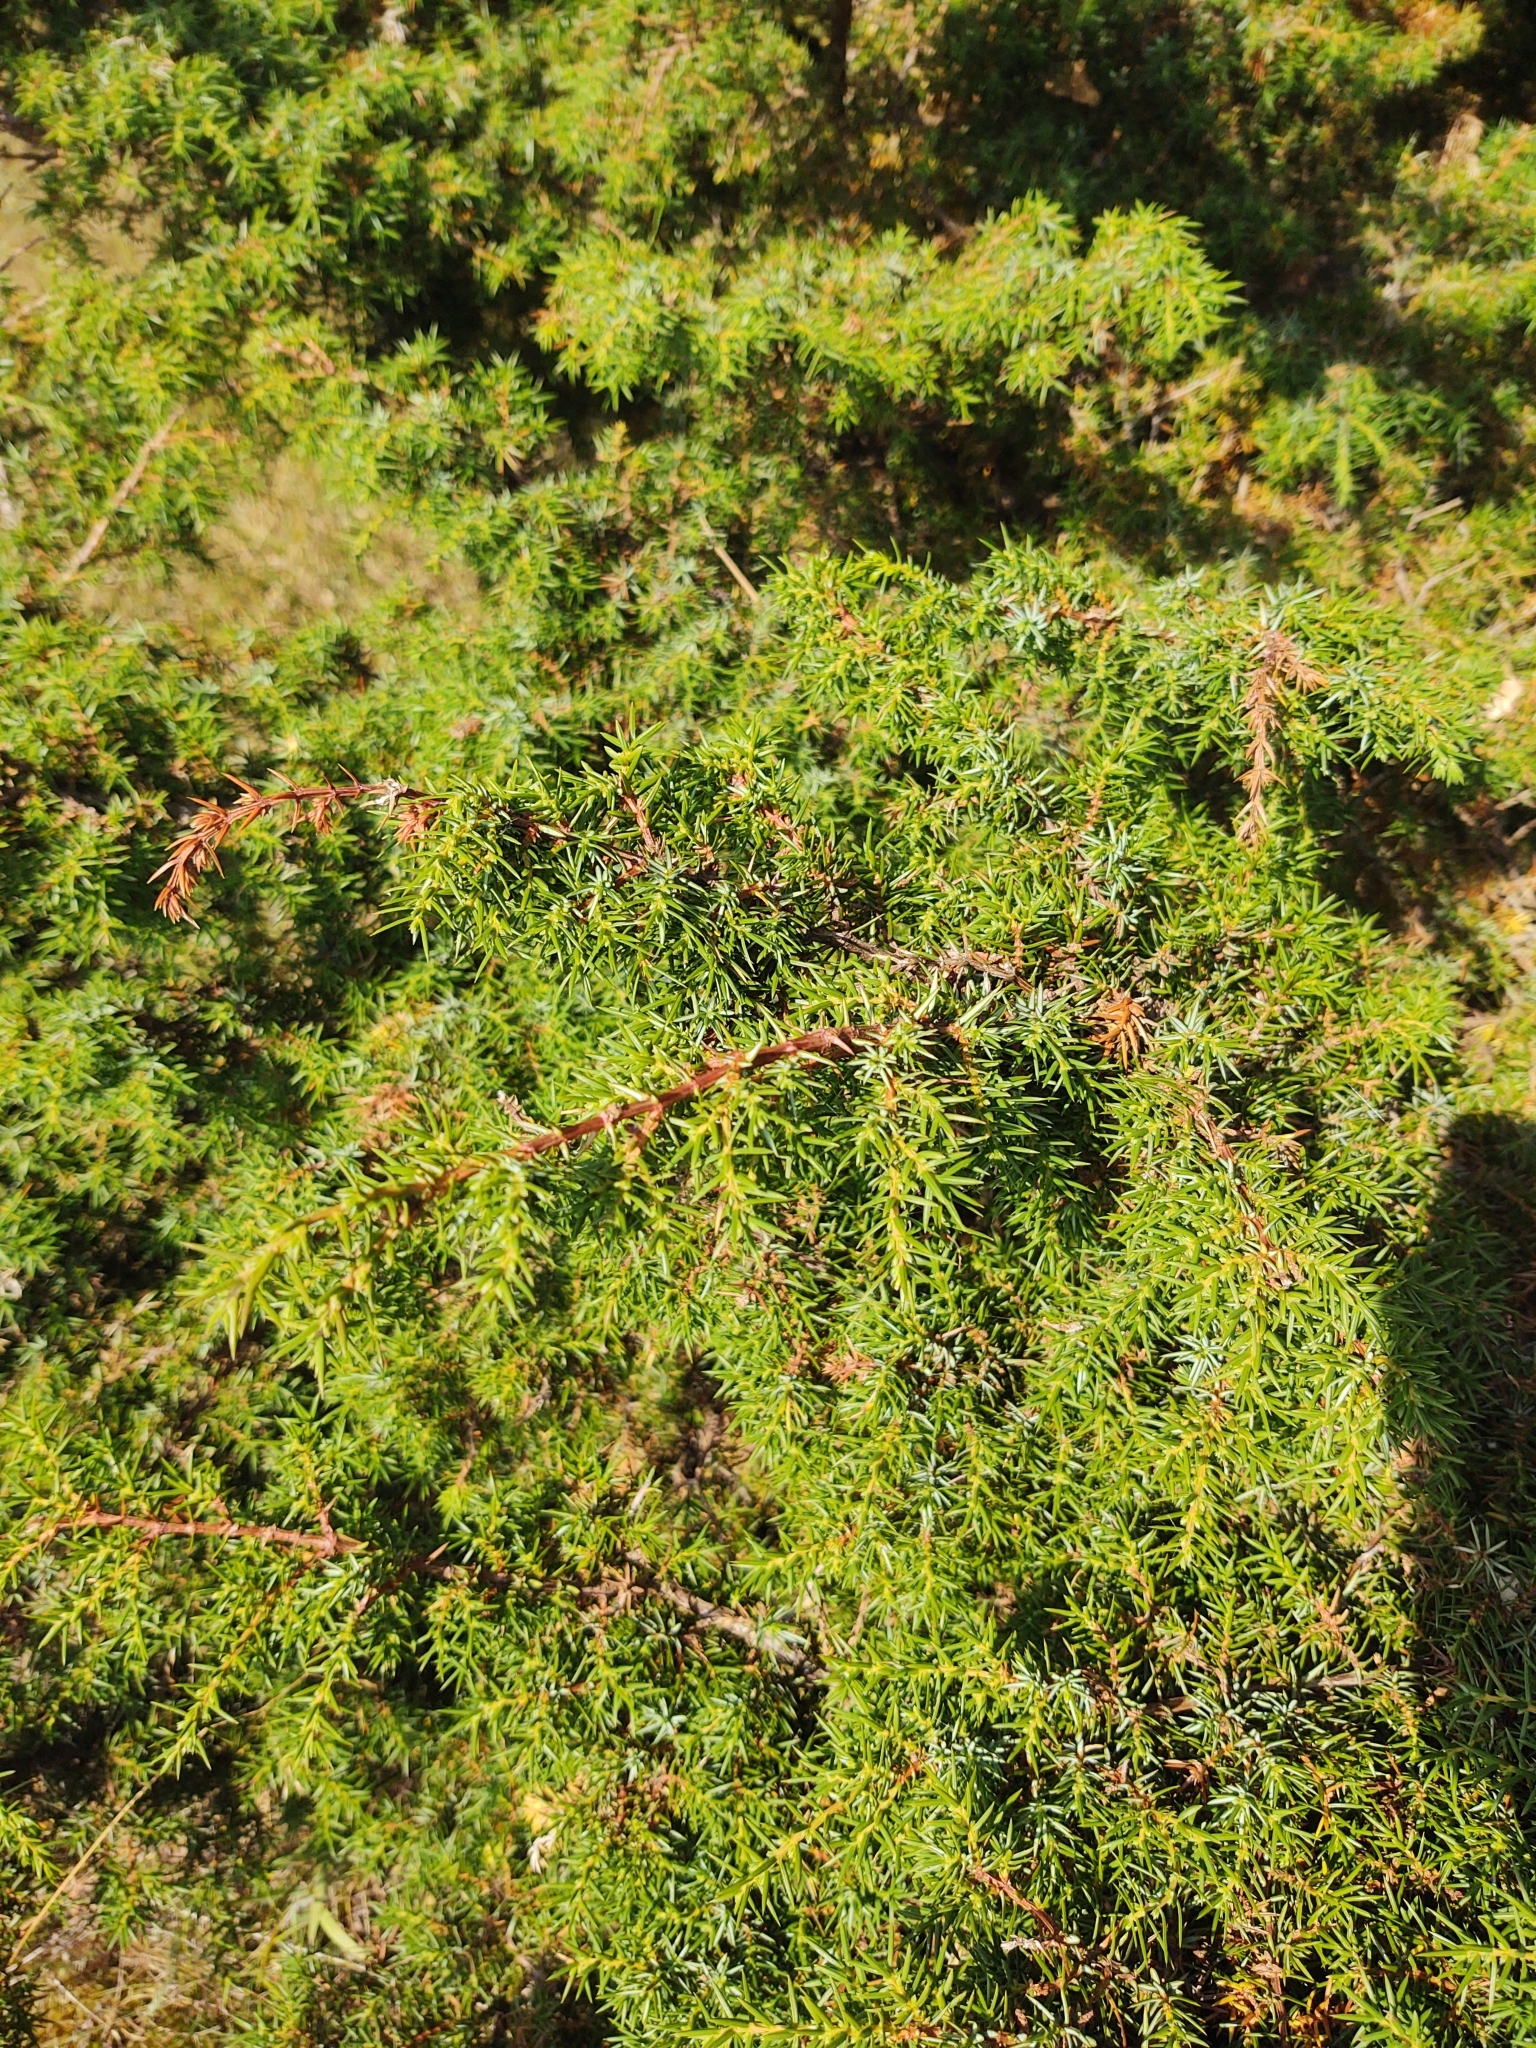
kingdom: Plantae
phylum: Tracheophyta
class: Pinopsida
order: Pinales
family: Cupressaceae
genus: Juniperus
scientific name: Juniperus communis
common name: Common juniper
